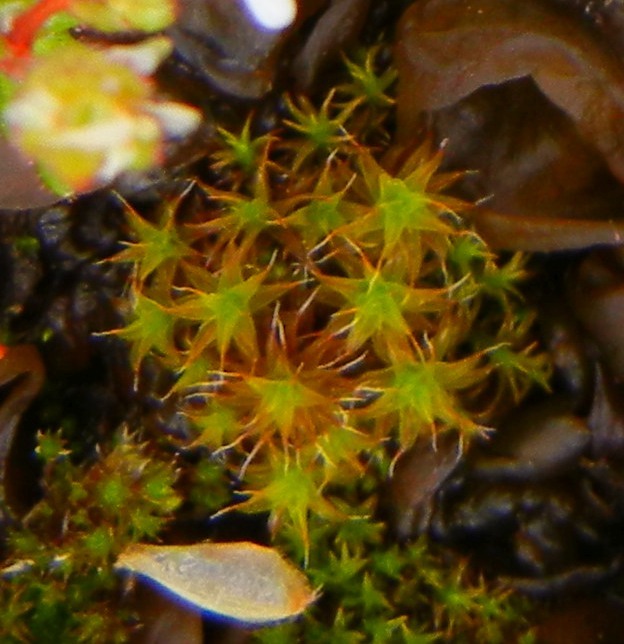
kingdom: Plantae
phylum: Bryophyta
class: Bryopsida
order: Pottiales
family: Pottiaceae
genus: Syntrichia
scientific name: Syntrichia ruralis
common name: Sidewalk screw moss
